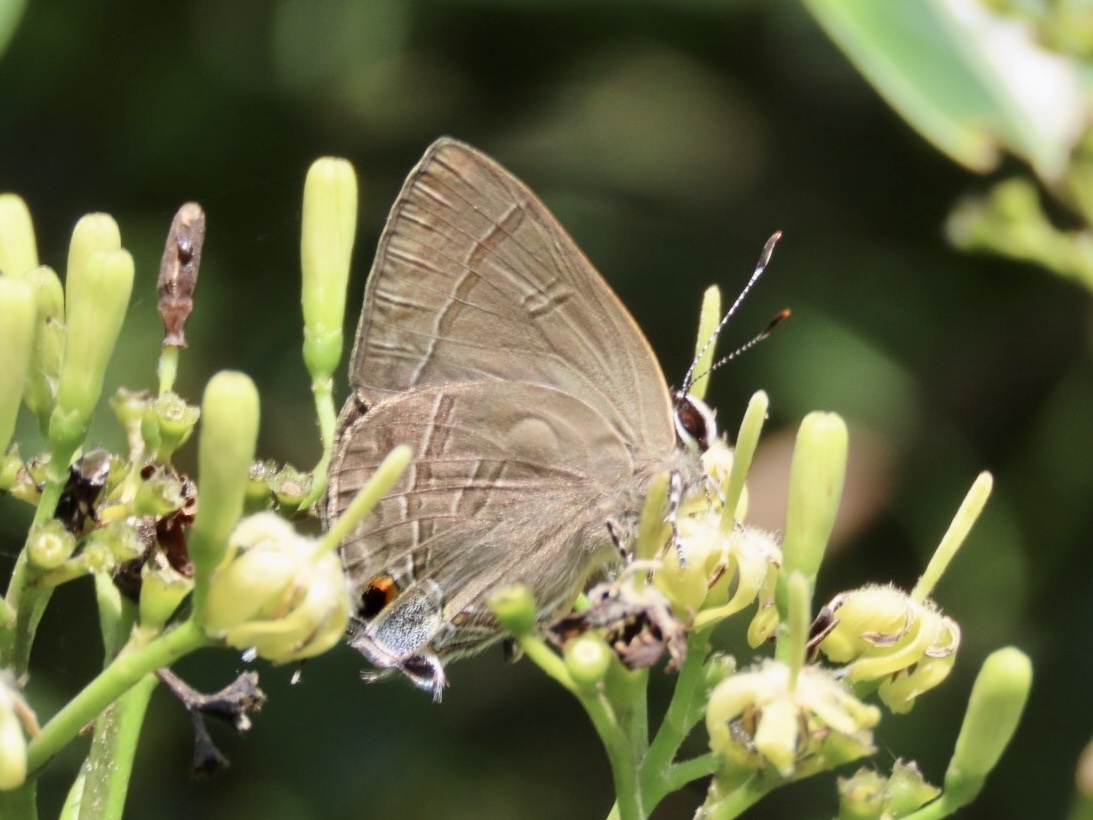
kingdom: Animalia
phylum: Arthropoda
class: Insecta
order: Lepidoptera
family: Lycaenidae
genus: Rapala
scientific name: Rapala manea
